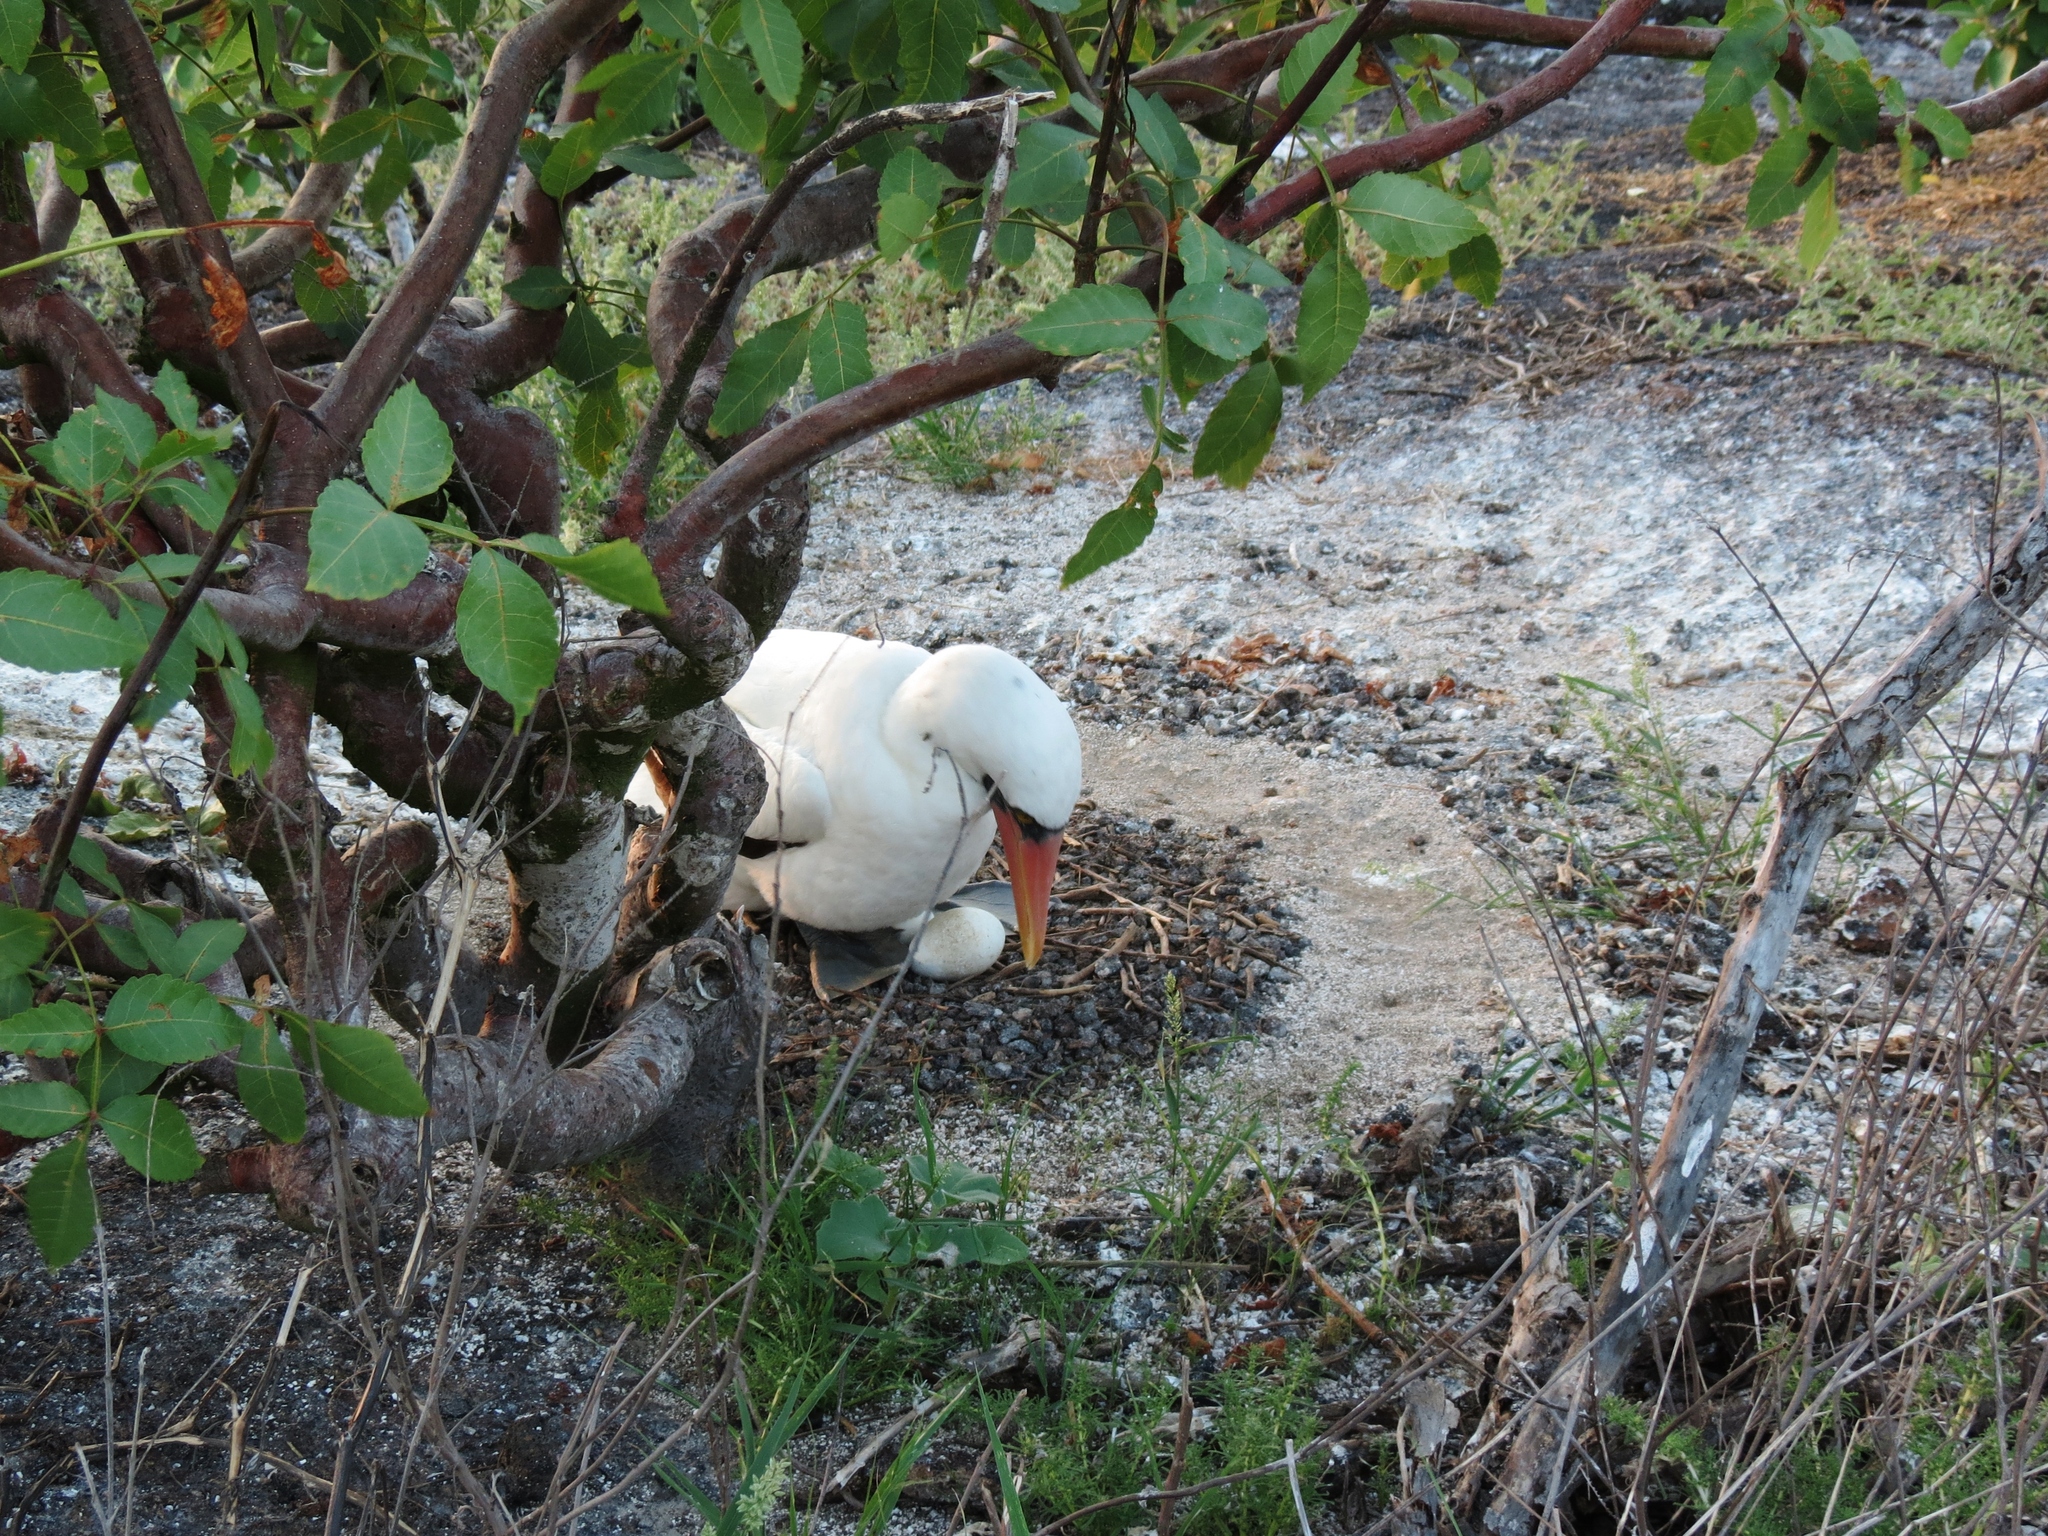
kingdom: Animalia
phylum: Chordata
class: Aves
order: Suliformes
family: Sulidae
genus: Sula
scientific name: Sula granti
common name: Nazca booby
